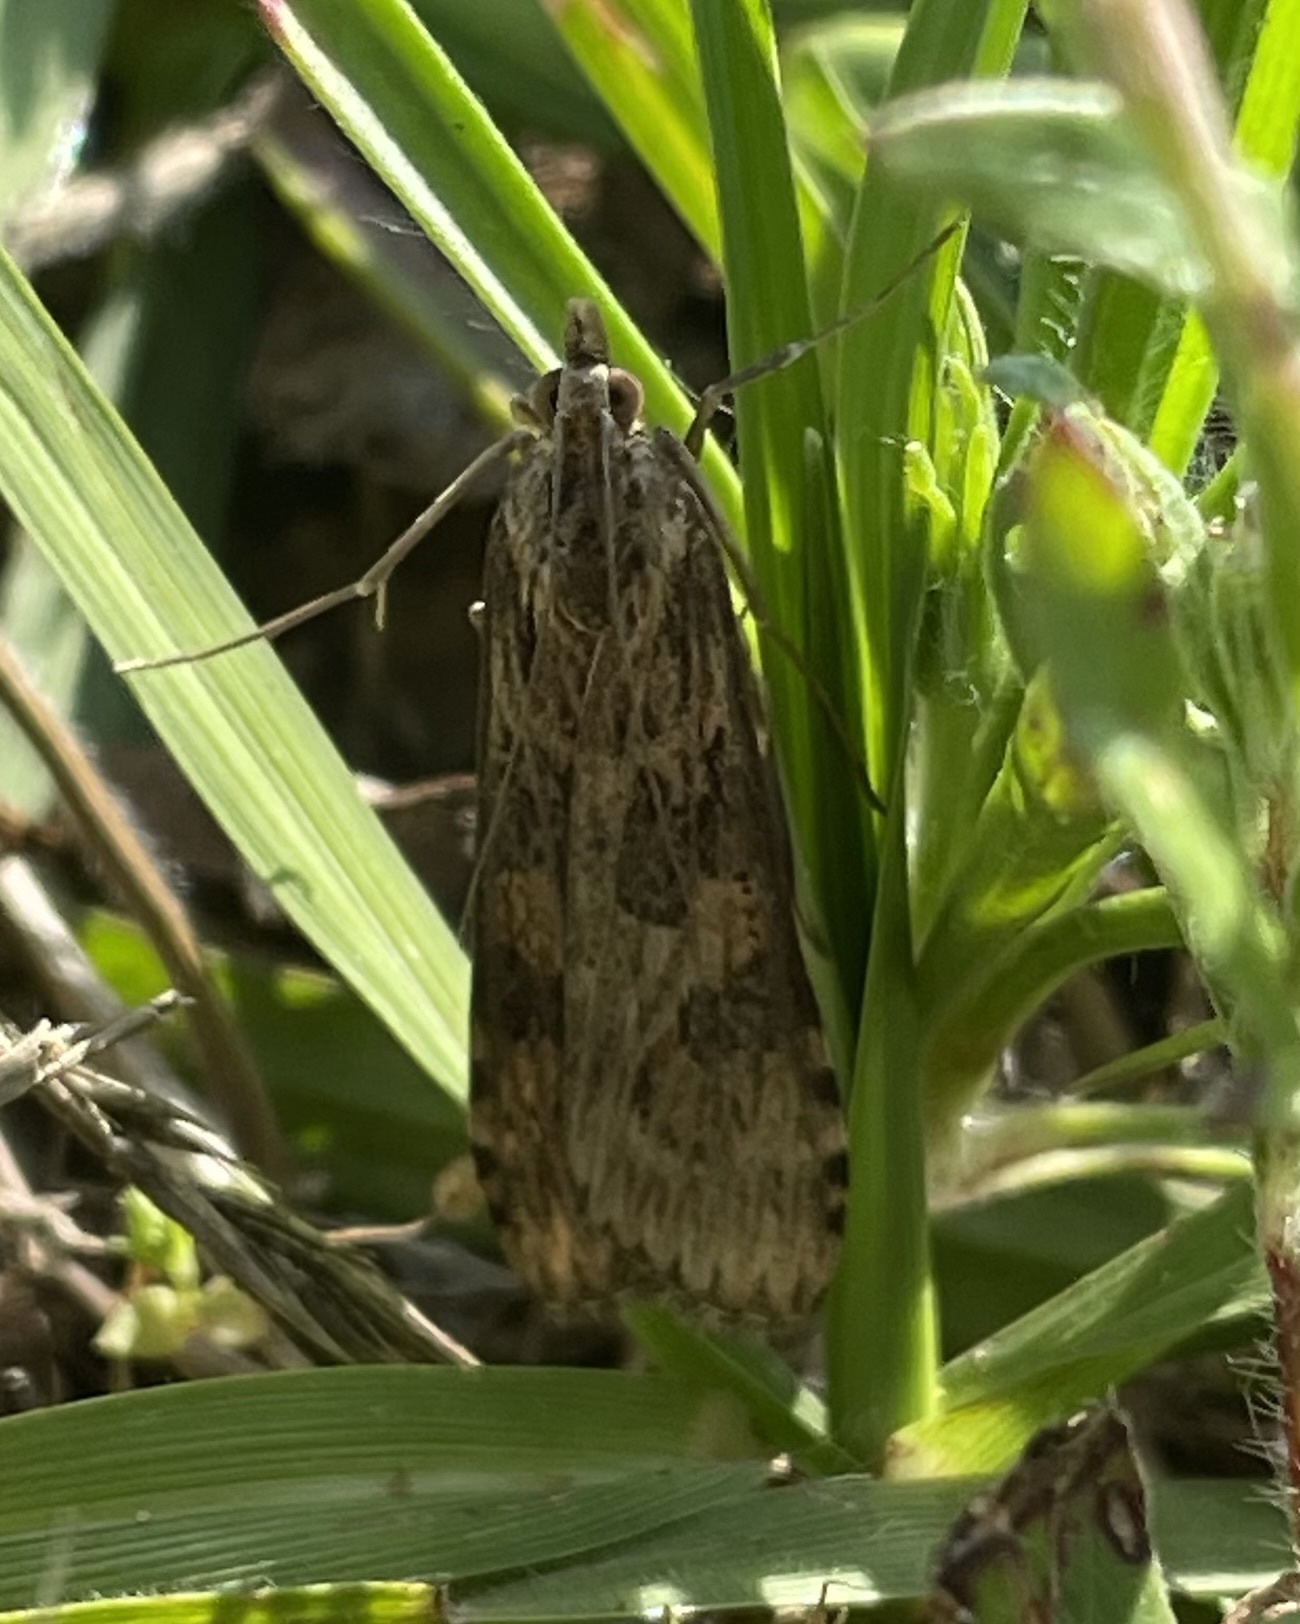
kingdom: Animalia
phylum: Arthropoda
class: Insecta
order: Lepidoptera
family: Crambidae
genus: Nomophila
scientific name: Nomophila nearctica
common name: American rush veneer
